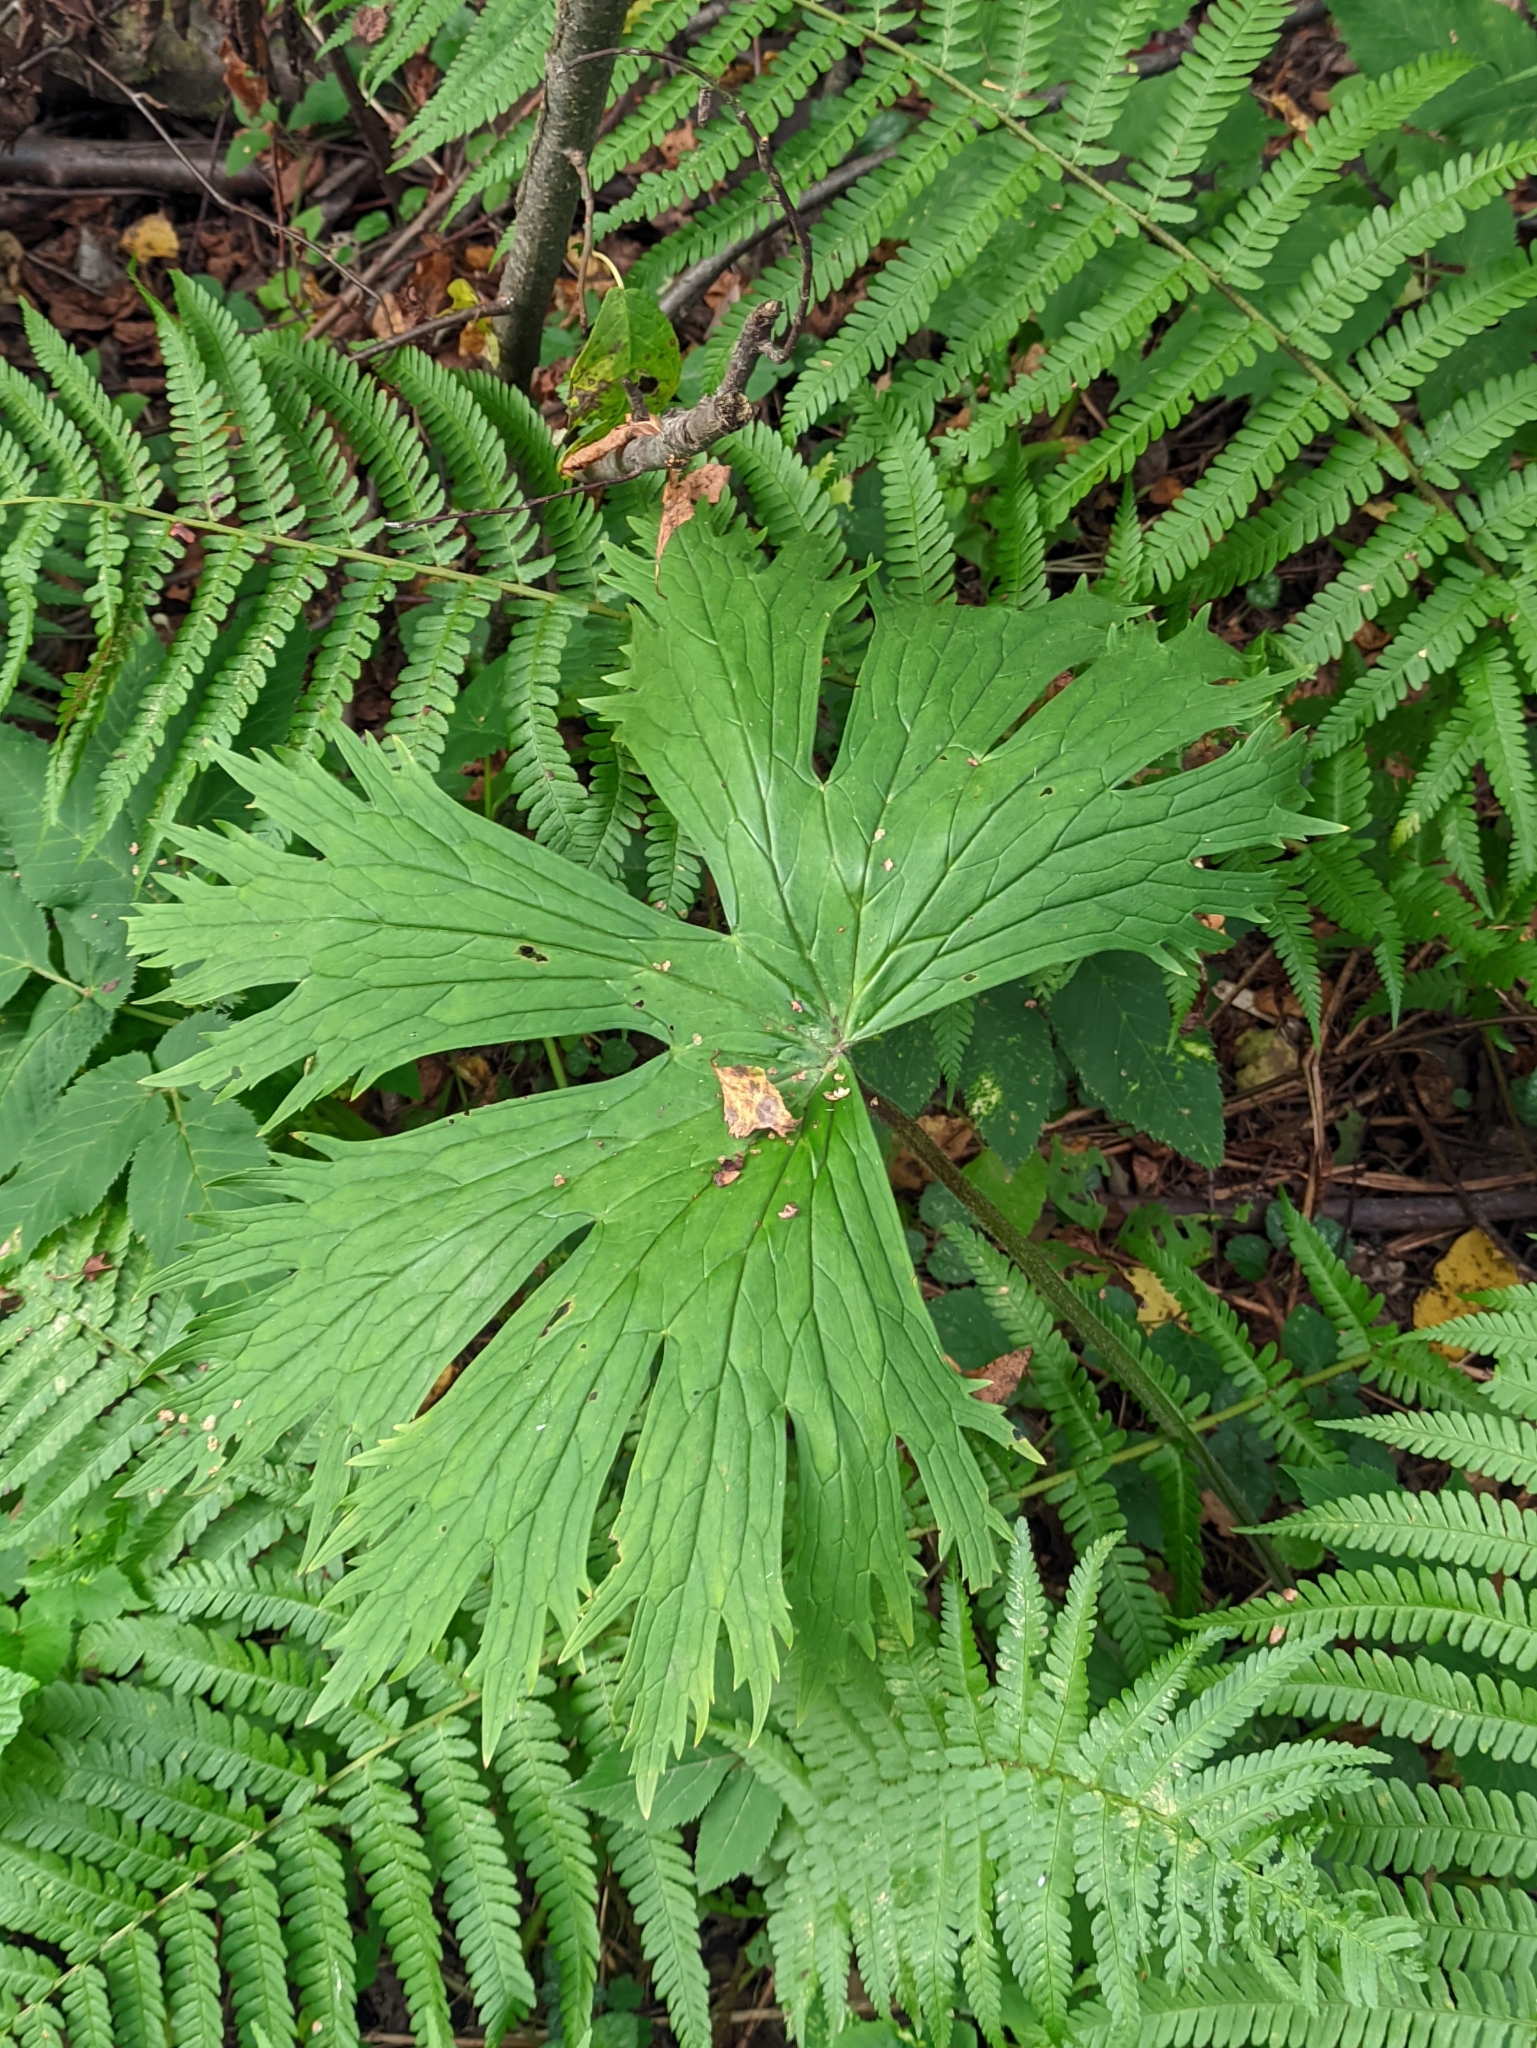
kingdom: Plantae
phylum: Tracheophyta
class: Magnoliopsida
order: Ranunculales
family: Ranunculaceae
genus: Aconitum
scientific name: Aconitum septentrionale
